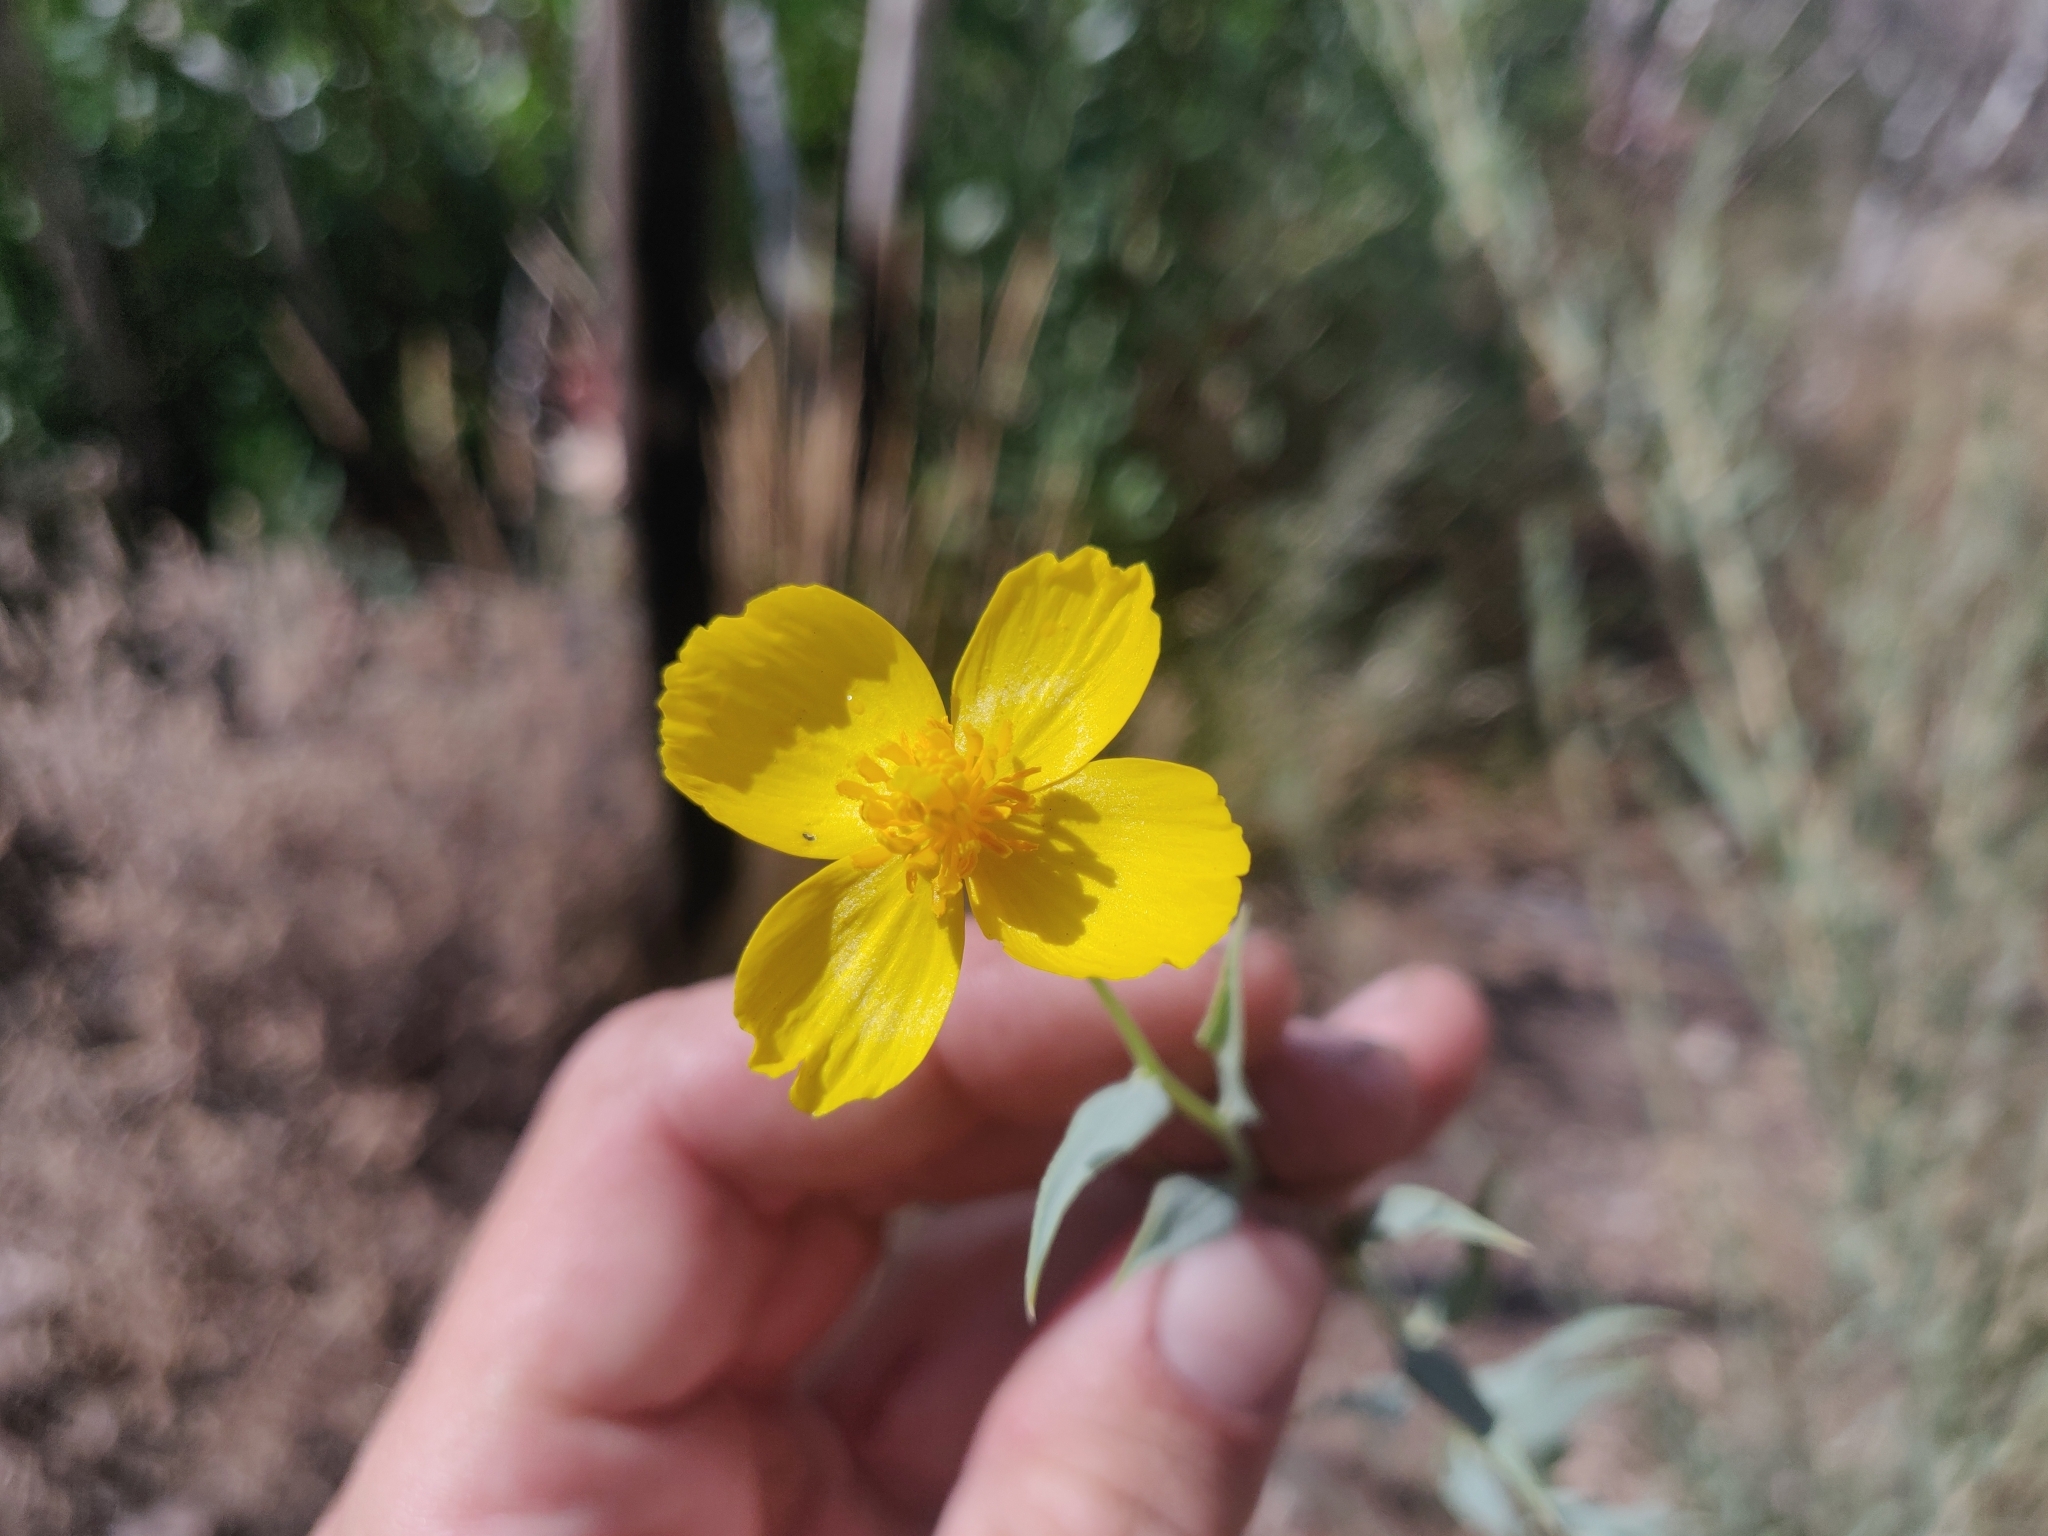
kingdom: Plantae
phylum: Tracheophyta
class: Magnoliopsida
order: Ranunculales
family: Papaveraceae
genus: Dendromecon
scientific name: Dendromecon rigida
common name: Tree poppy
